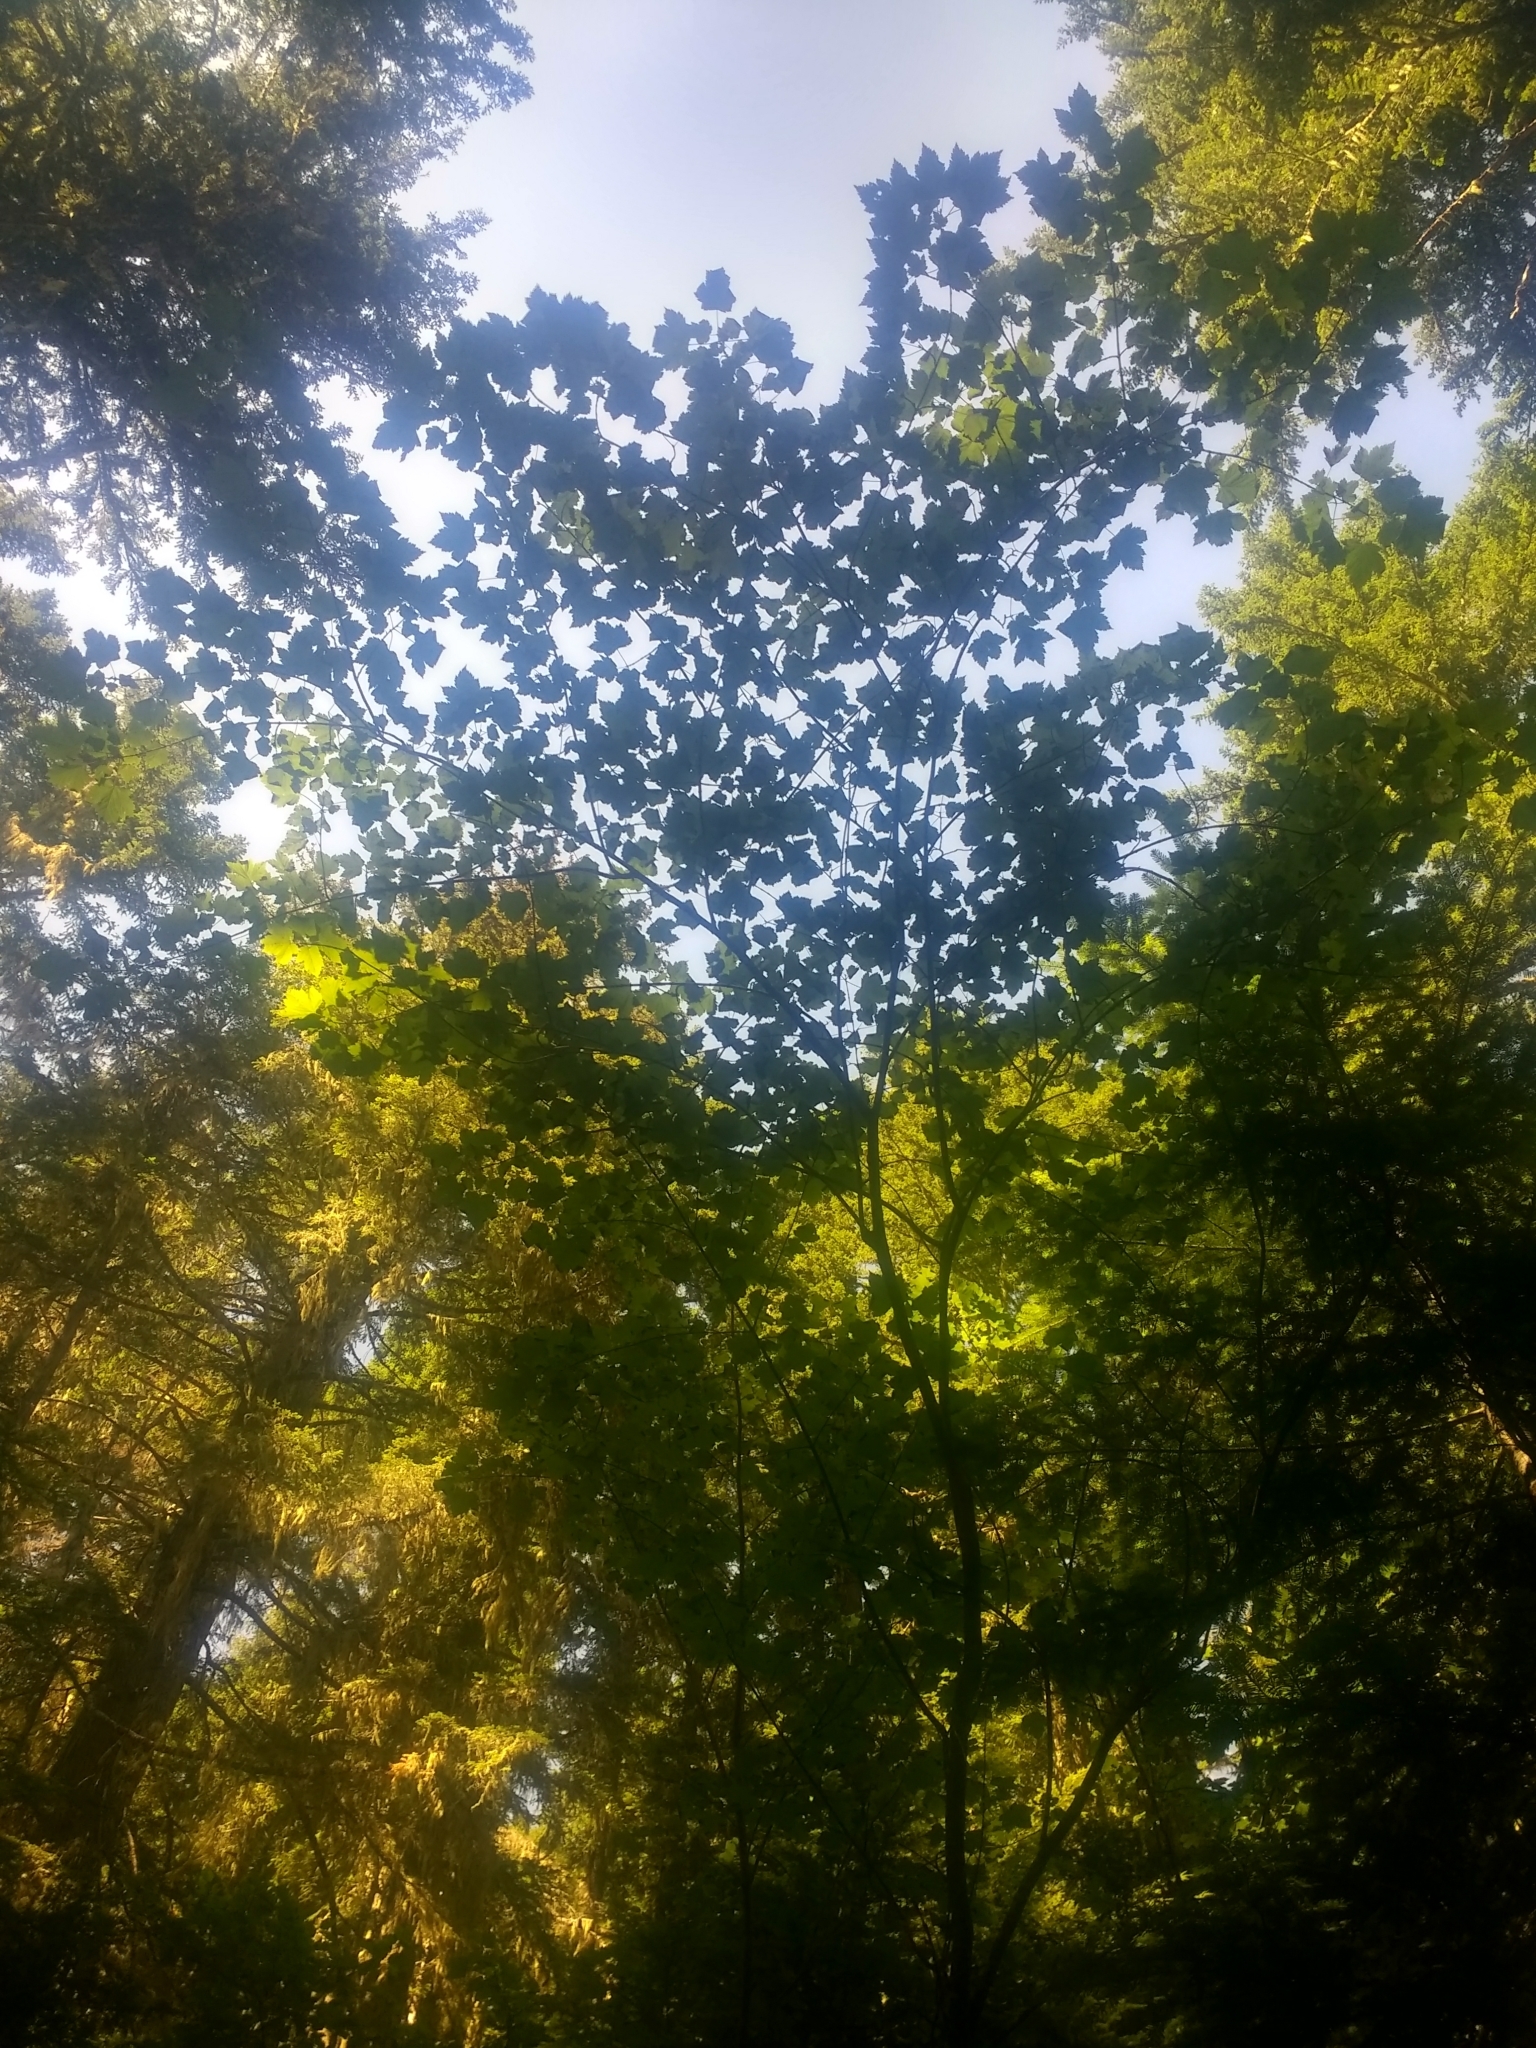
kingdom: Plantae
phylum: Tracheophyta
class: Magnoliopsida
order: Sapindales
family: Sapindaceae
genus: Acer
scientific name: Acer glabrum
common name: Rocky mountain maple
